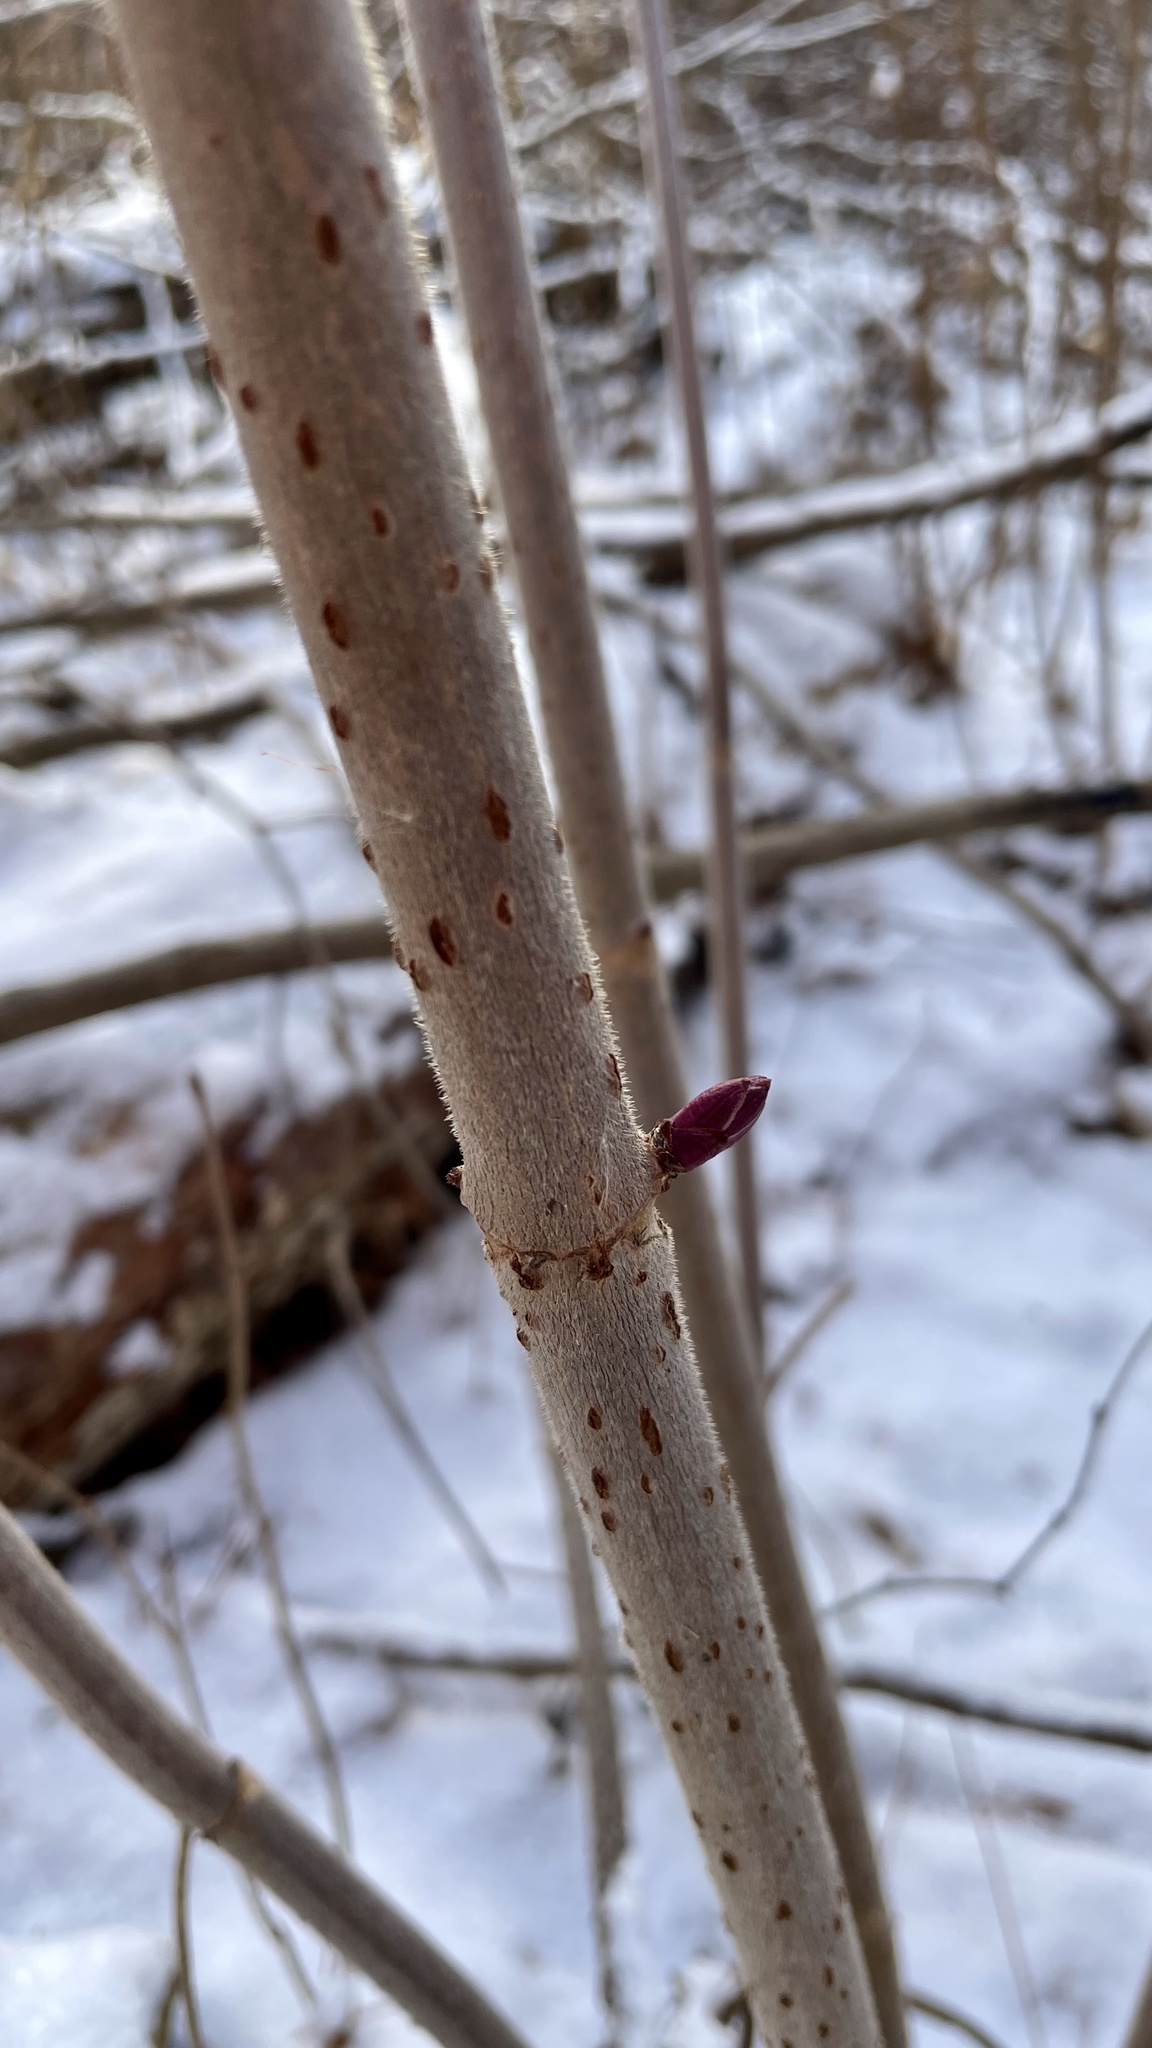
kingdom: Plantae
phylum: Tracheophyta
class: Magnoliopsida
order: Dipsacales
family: Viburnaceae
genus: Sambucus
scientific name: Sambucus racemosa
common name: Red-berried elder
